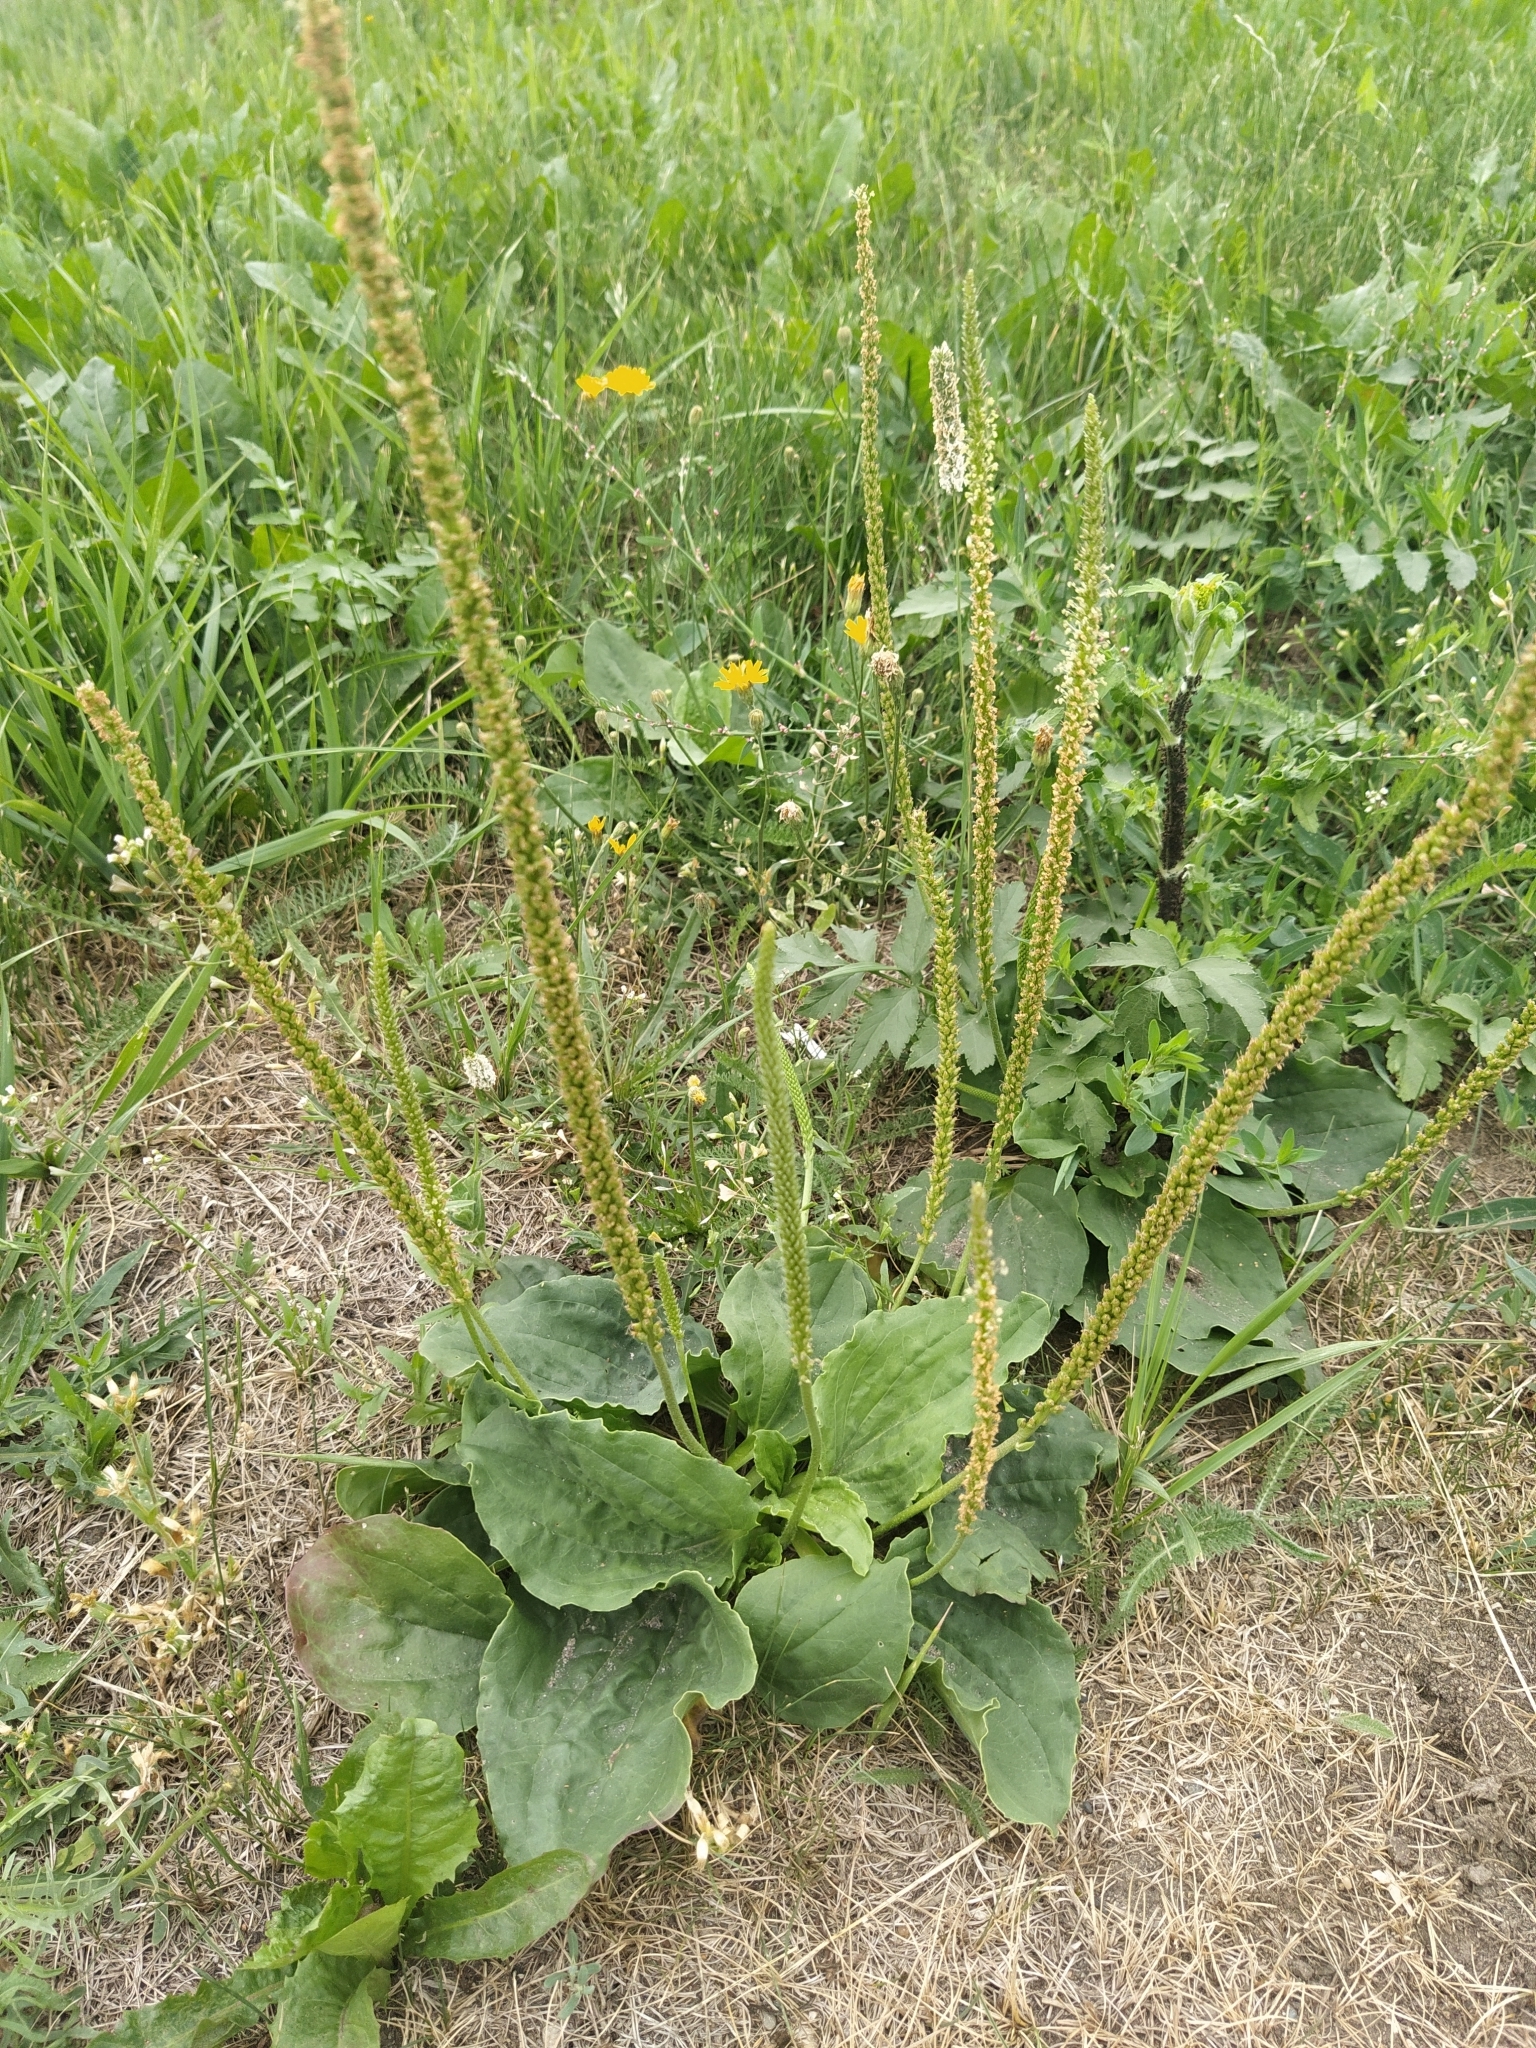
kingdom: Plantae
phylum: Tracheophyta
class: Magnoliopsida
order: Lamiales
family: Plantaginaceae
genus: Plantago
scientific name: Plantago major
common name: Common plantain
